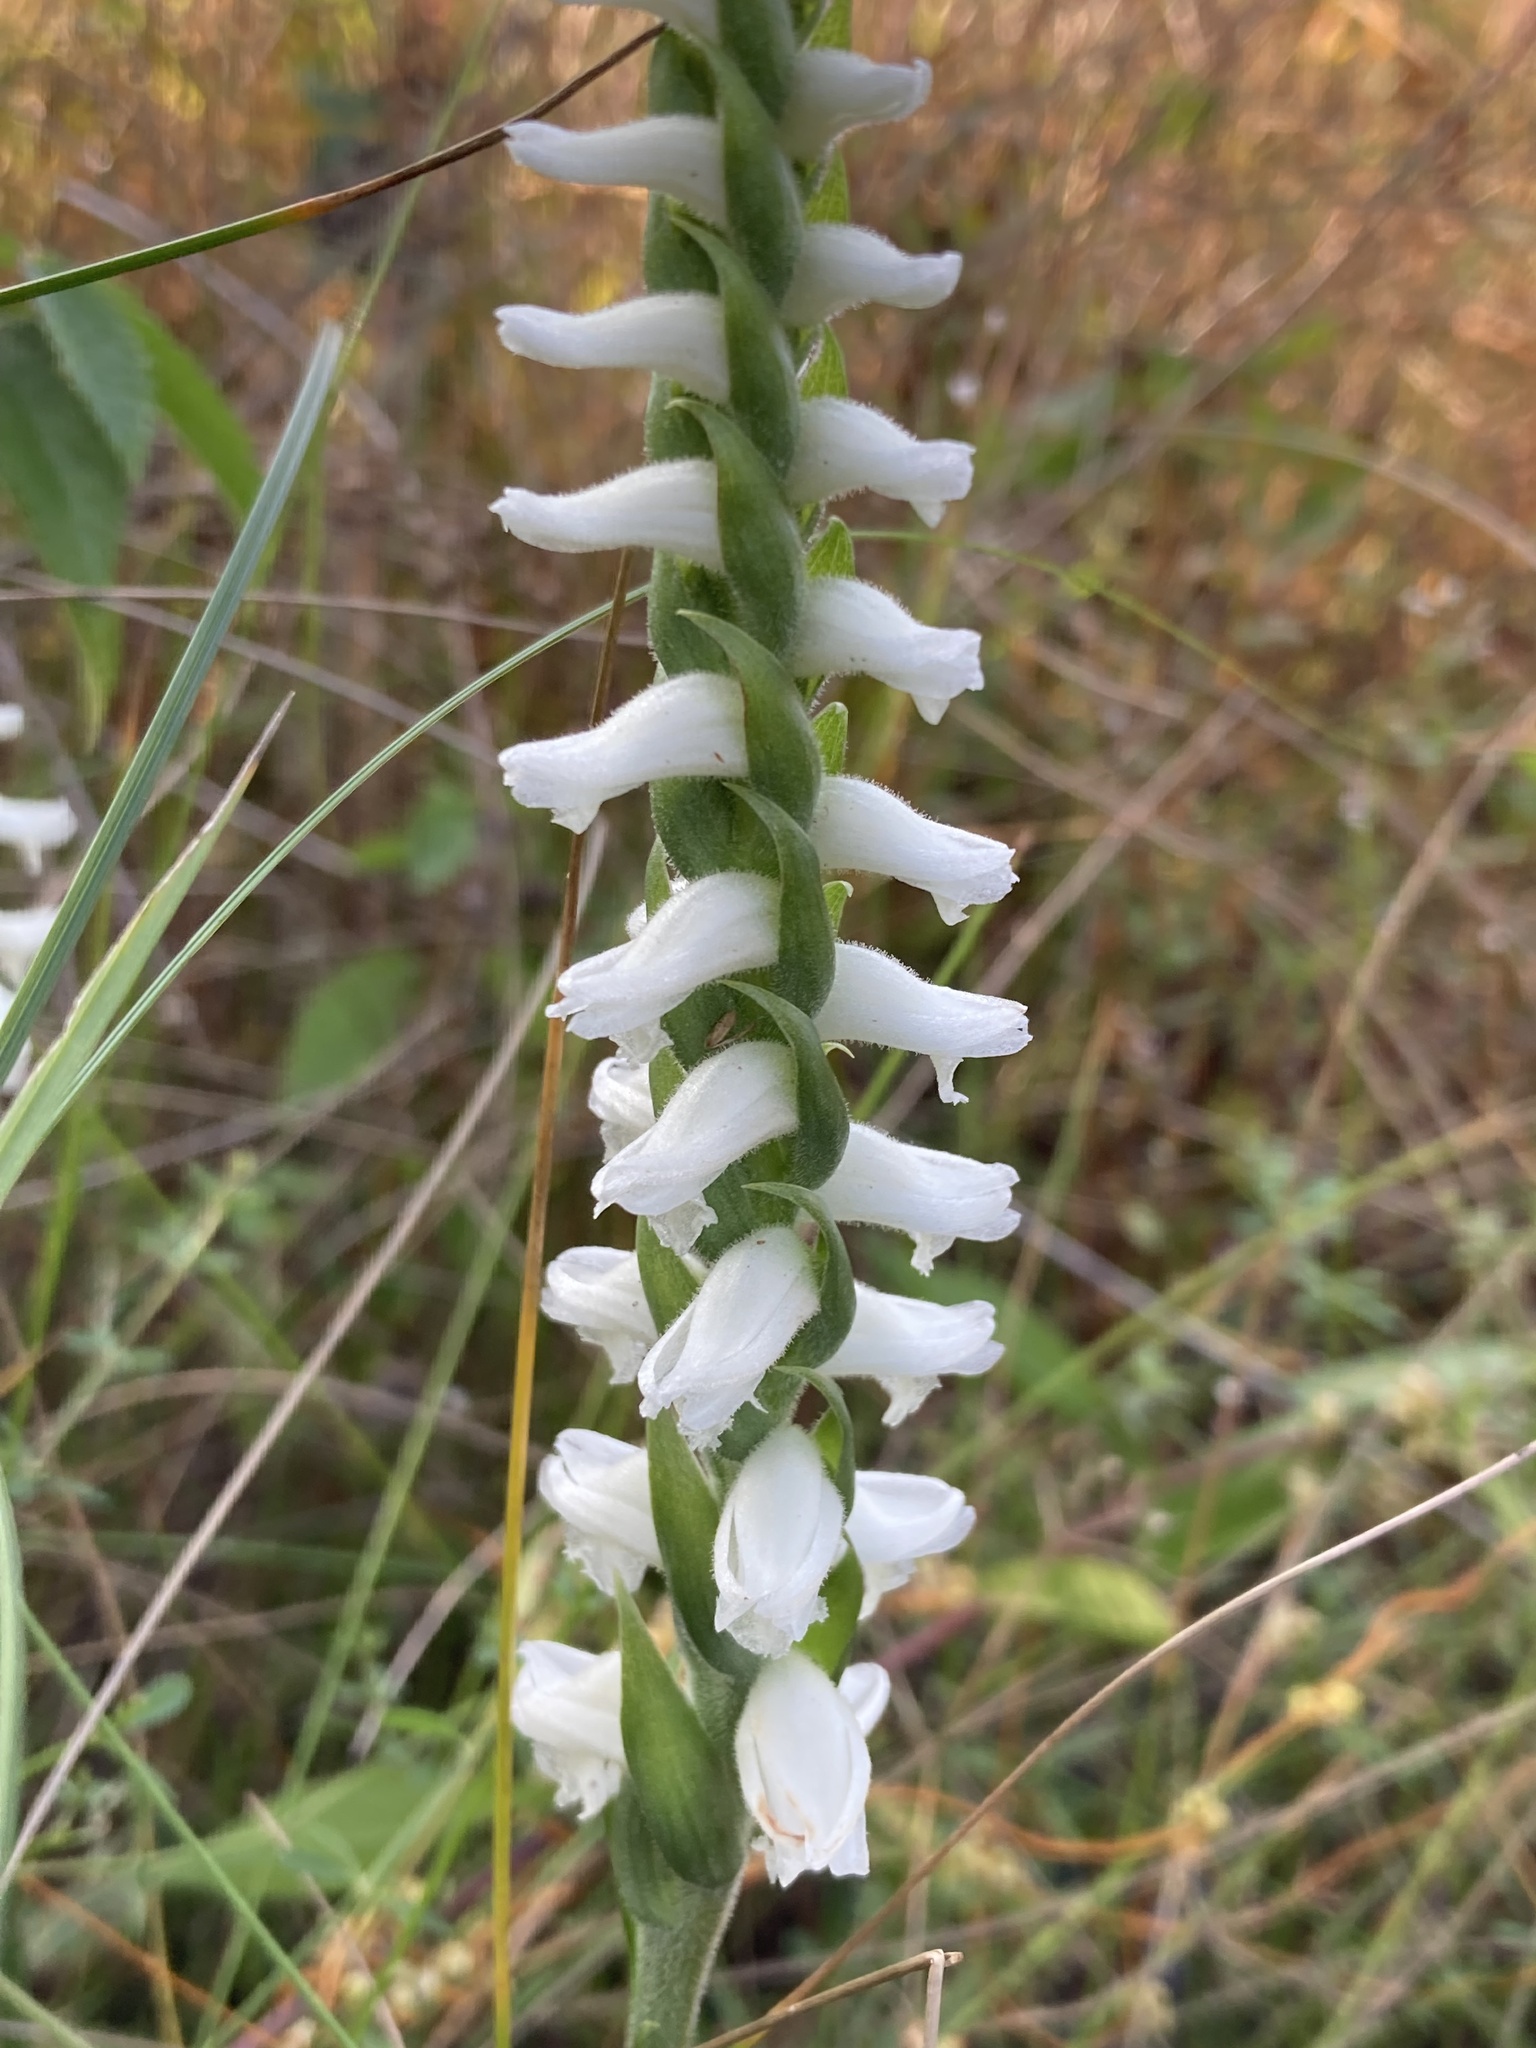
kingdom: Plantae
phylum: Tracheophyta
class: Liliopsida
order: Asparagales
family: Orchidaceae
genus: Spiranthes
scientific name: Spiranthes bightensis
